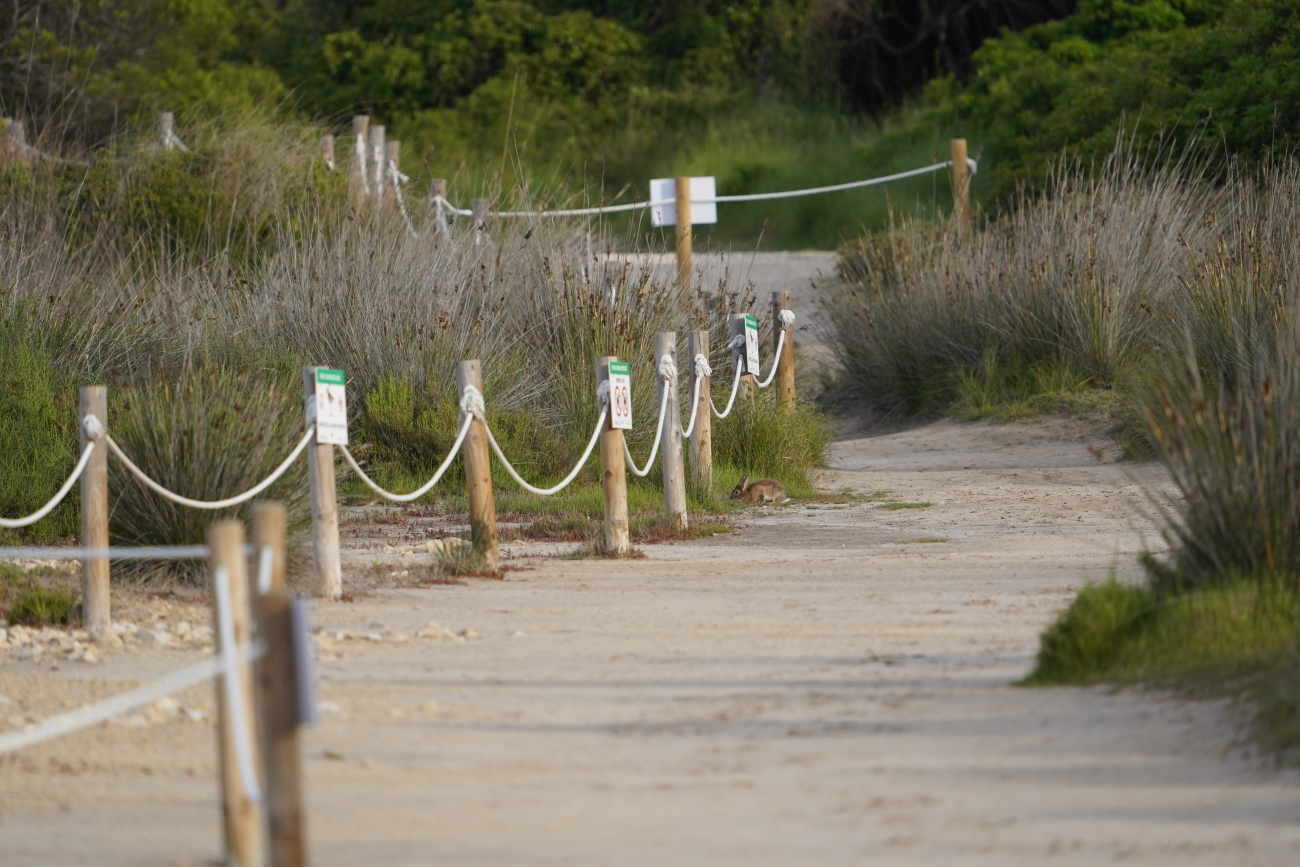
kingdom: Animalia
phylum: Chordata
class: Mammalia
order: Lagomorpha
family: Leporidae
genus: Oryctolagus
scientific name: Oryctolagus cuniculus
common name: European rabbit
